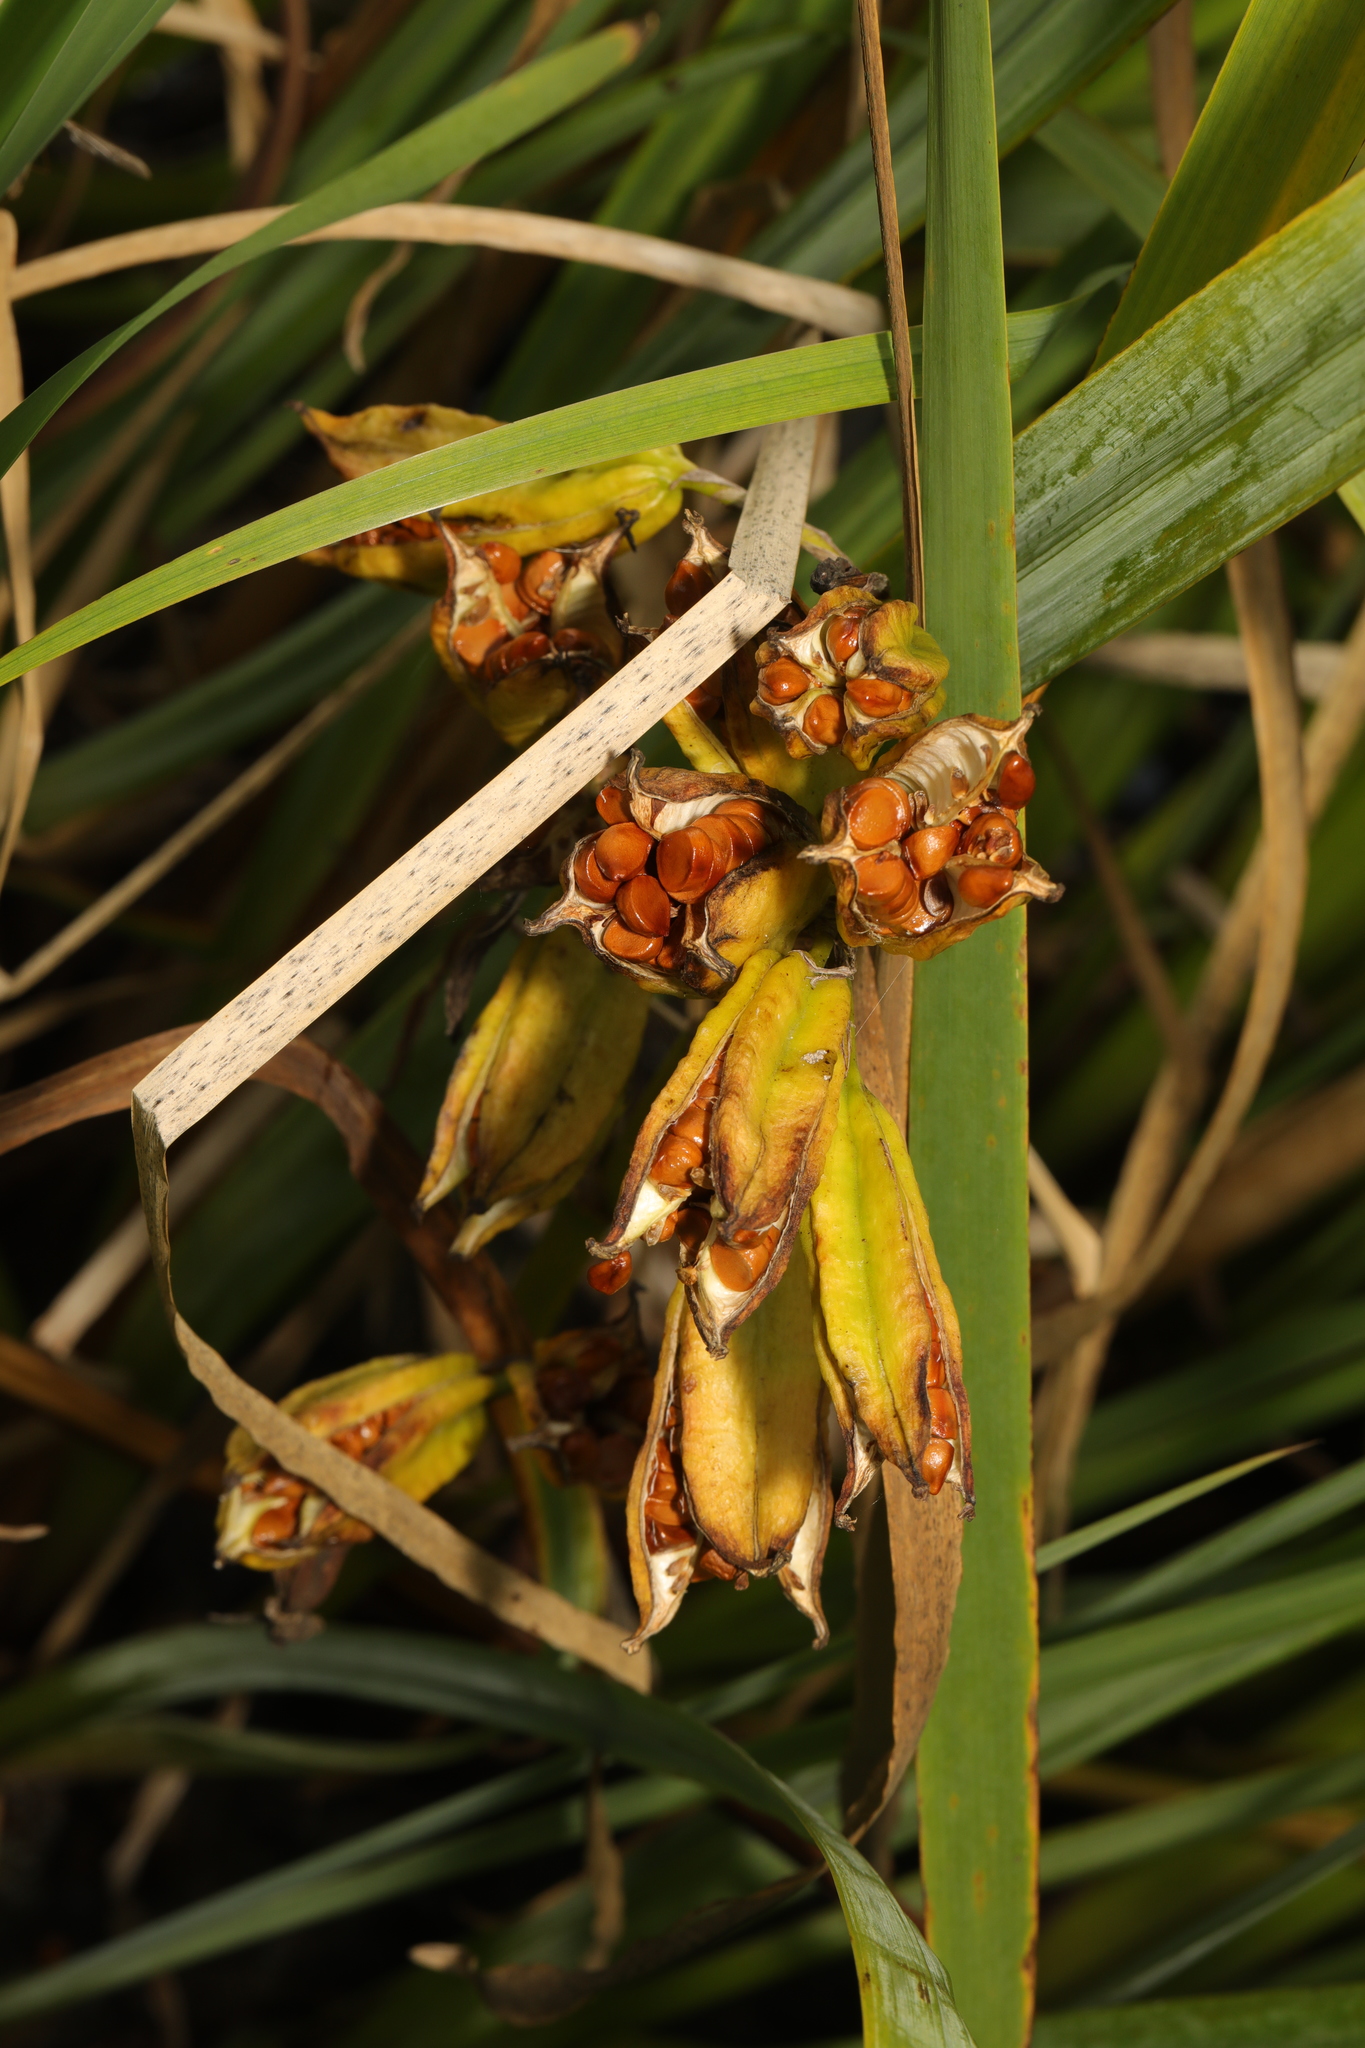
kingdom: Plantae
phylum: Tracheophyta
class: Liliopsida
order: Asparagales
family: Iridaceae
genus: Iris
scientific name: Iris pseudacorus
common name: Yellow flag
